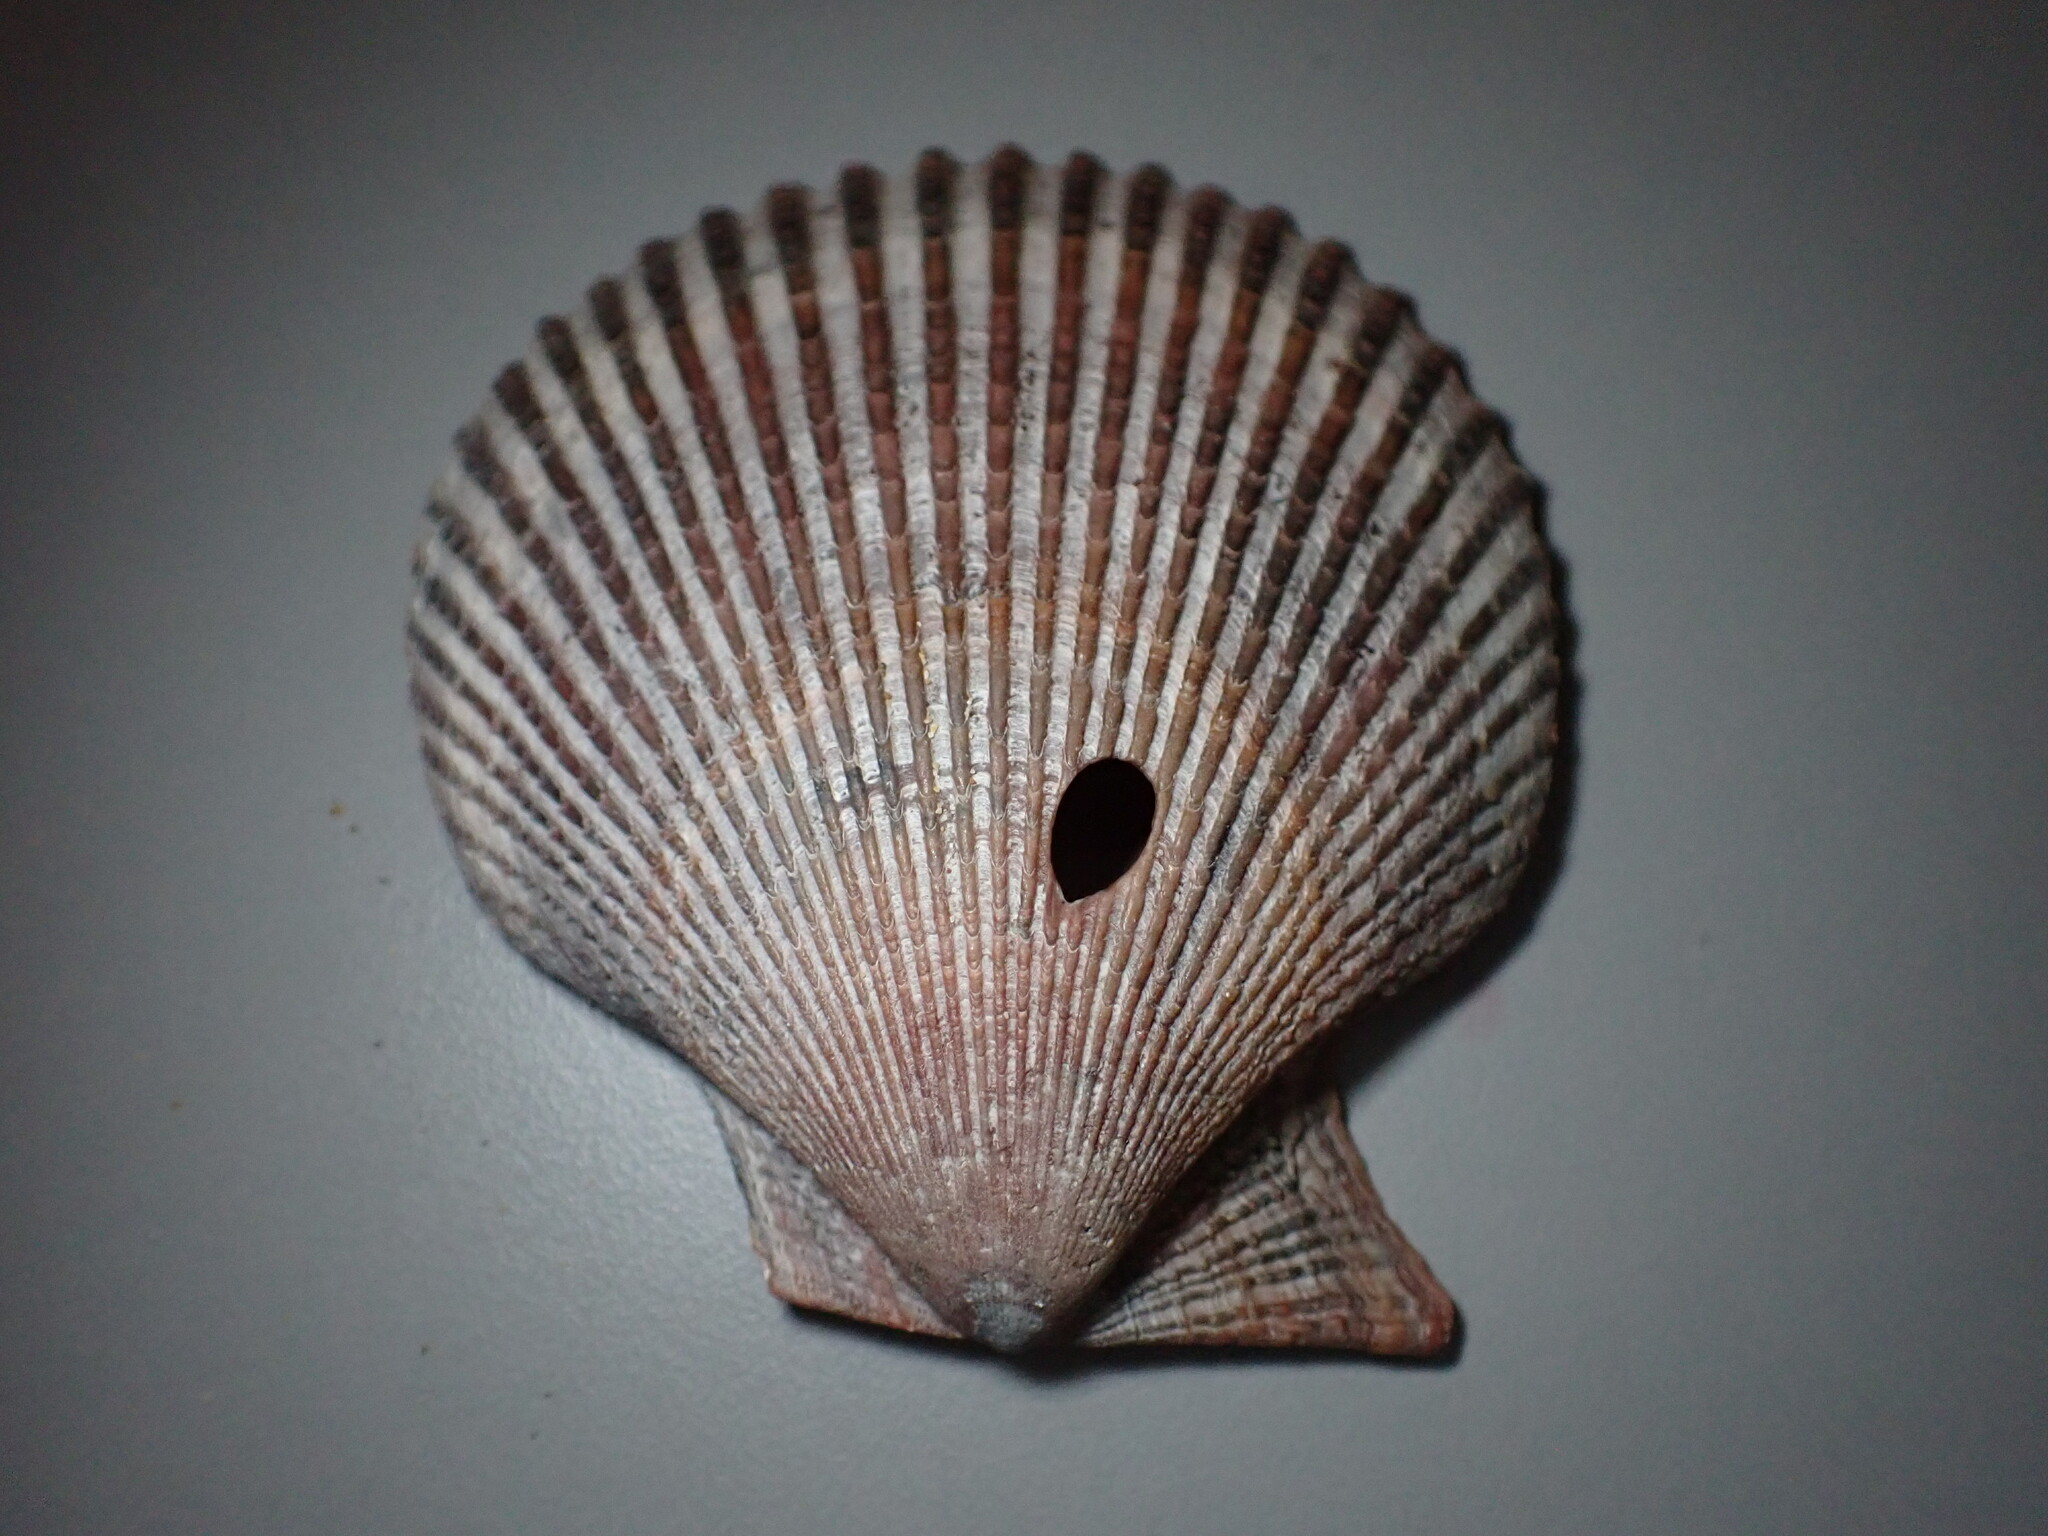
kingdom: Animalia
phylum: Mollusca
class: Bivalvia
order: Pectinida
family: Pectinidae
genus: Mimachlamys
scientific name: Mimachlamys varia
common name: Variegated scallop
